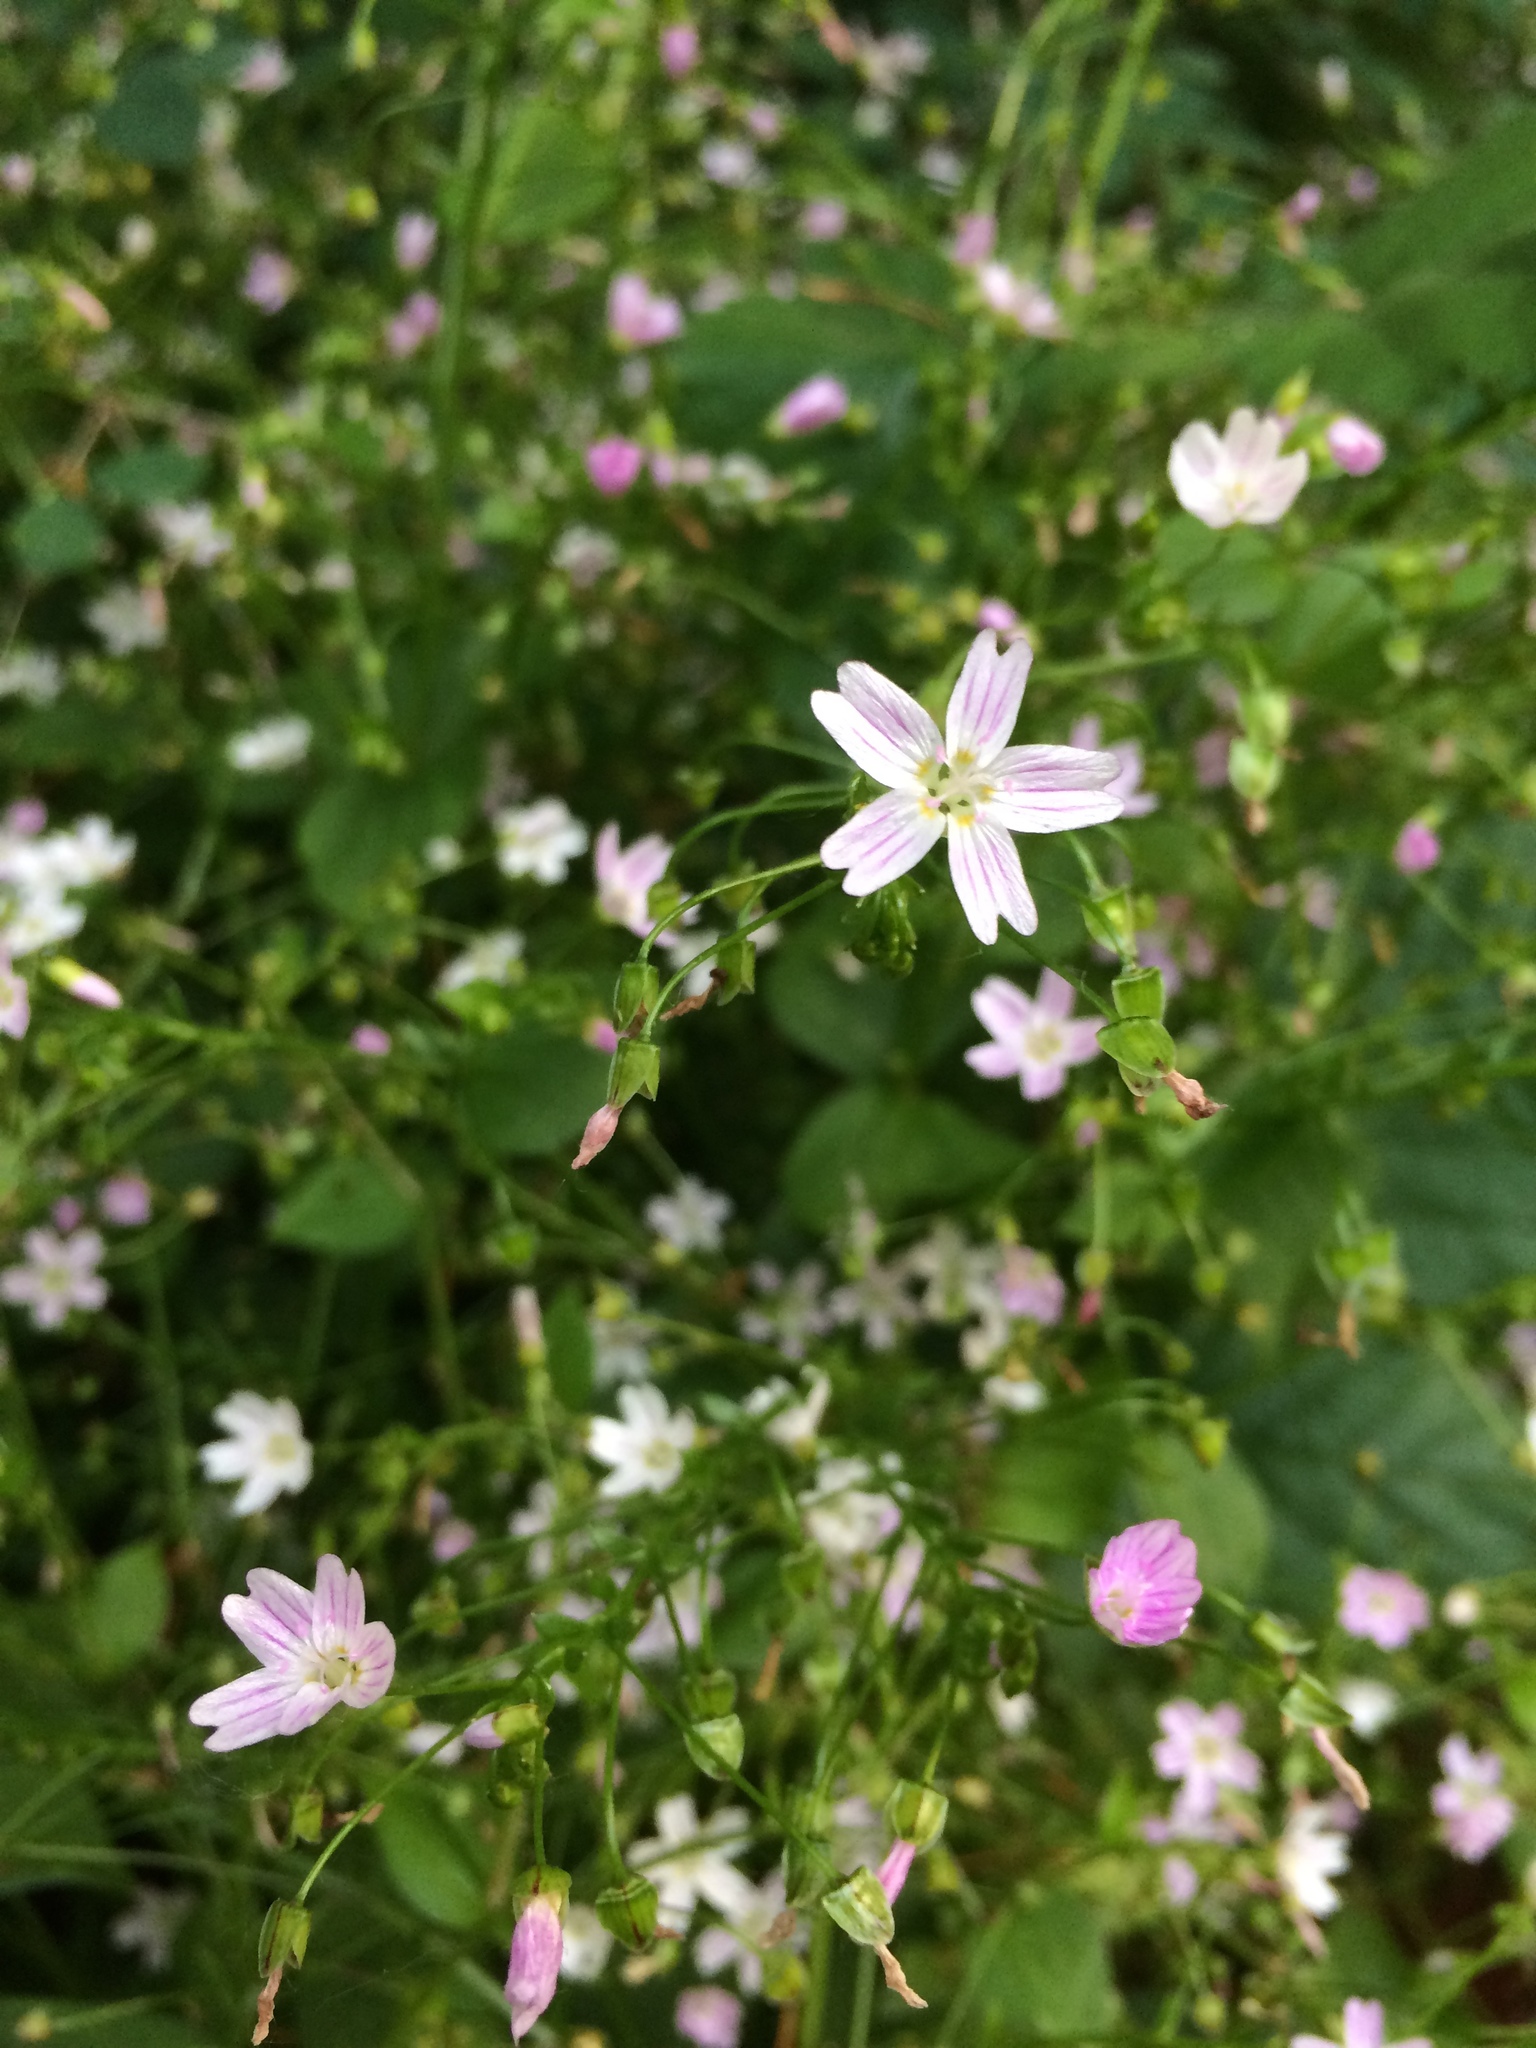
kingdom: Plantae
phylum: Tracheophyta
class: Magnoliopsida
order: Caryophyllales
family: Montiaceae
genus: Claytonia
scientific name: Claytonia sibirica
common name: Pink purslane
